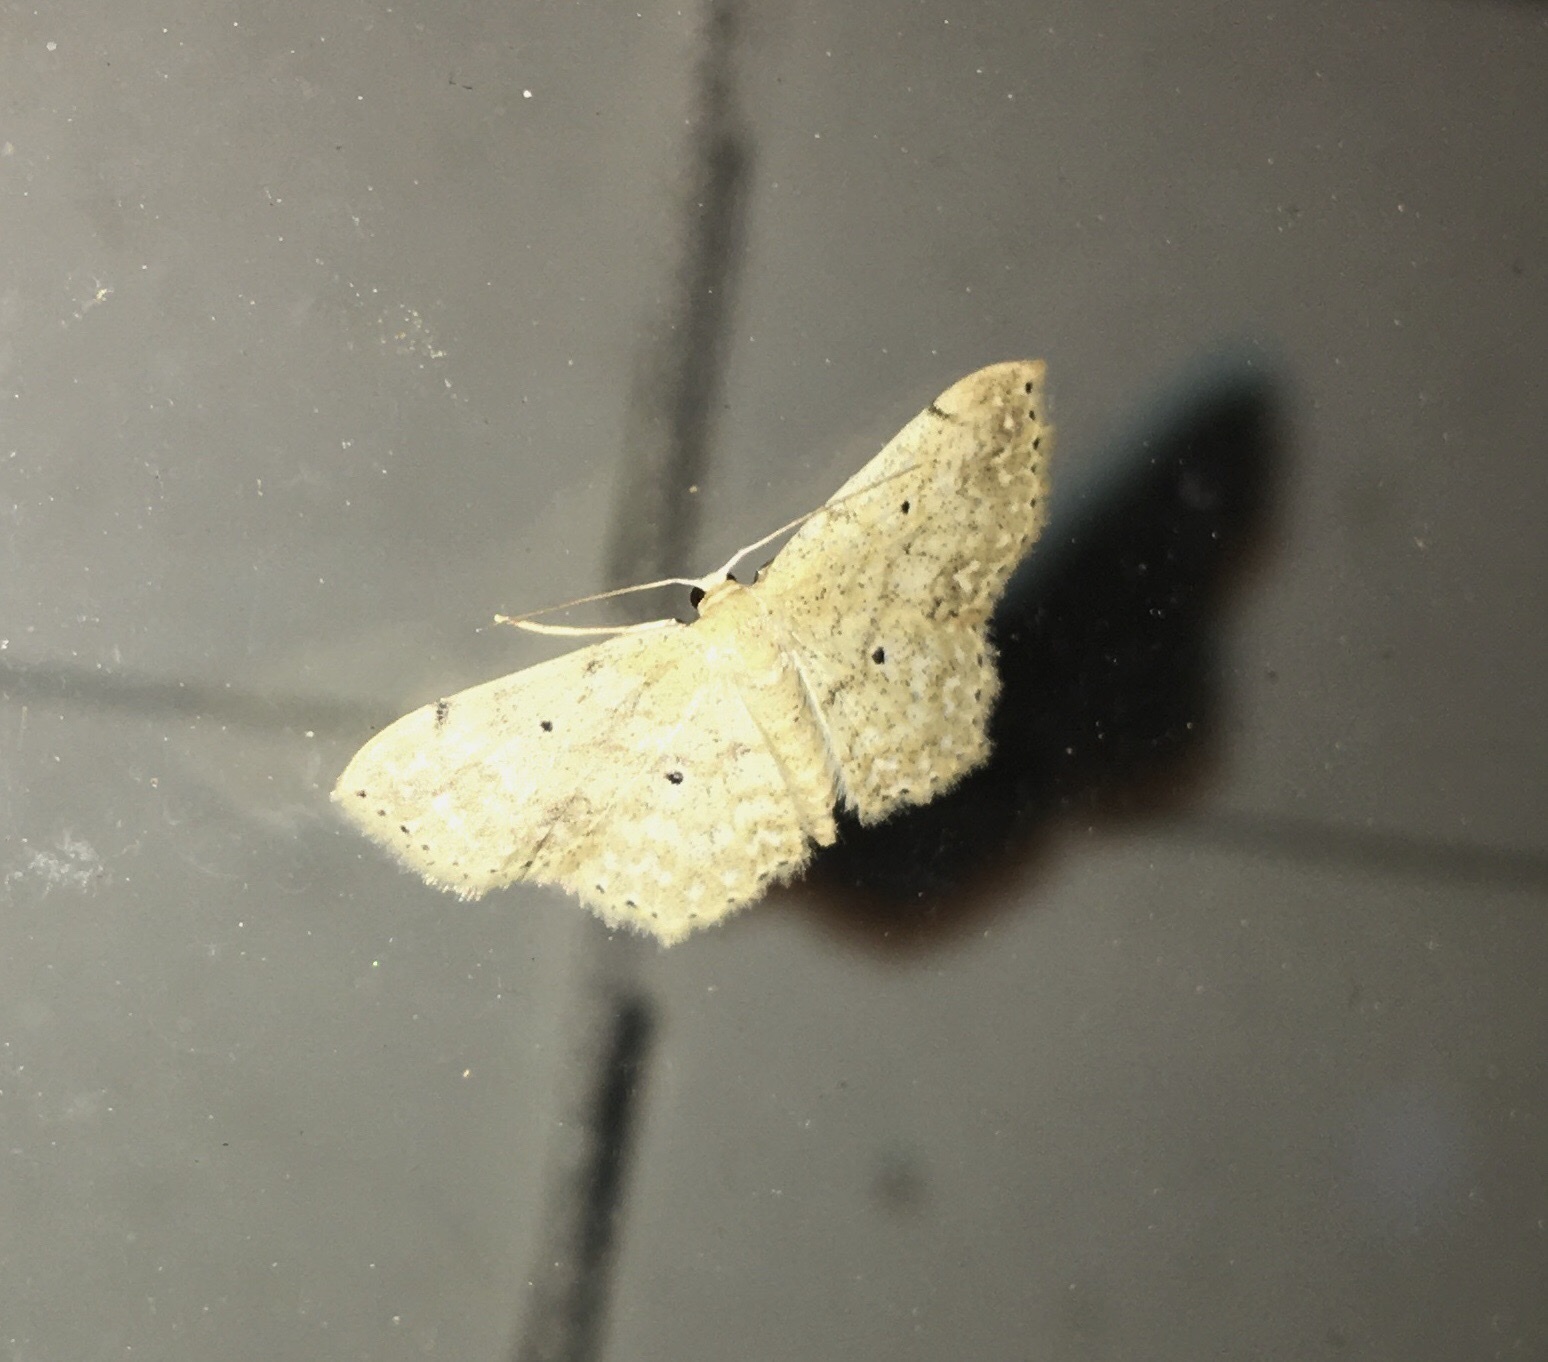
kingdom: Animalia
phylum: Arthropoda
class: Insecta
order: Lepidoptera
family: Geometridae
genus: Scopula
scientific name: Scopula compensata
